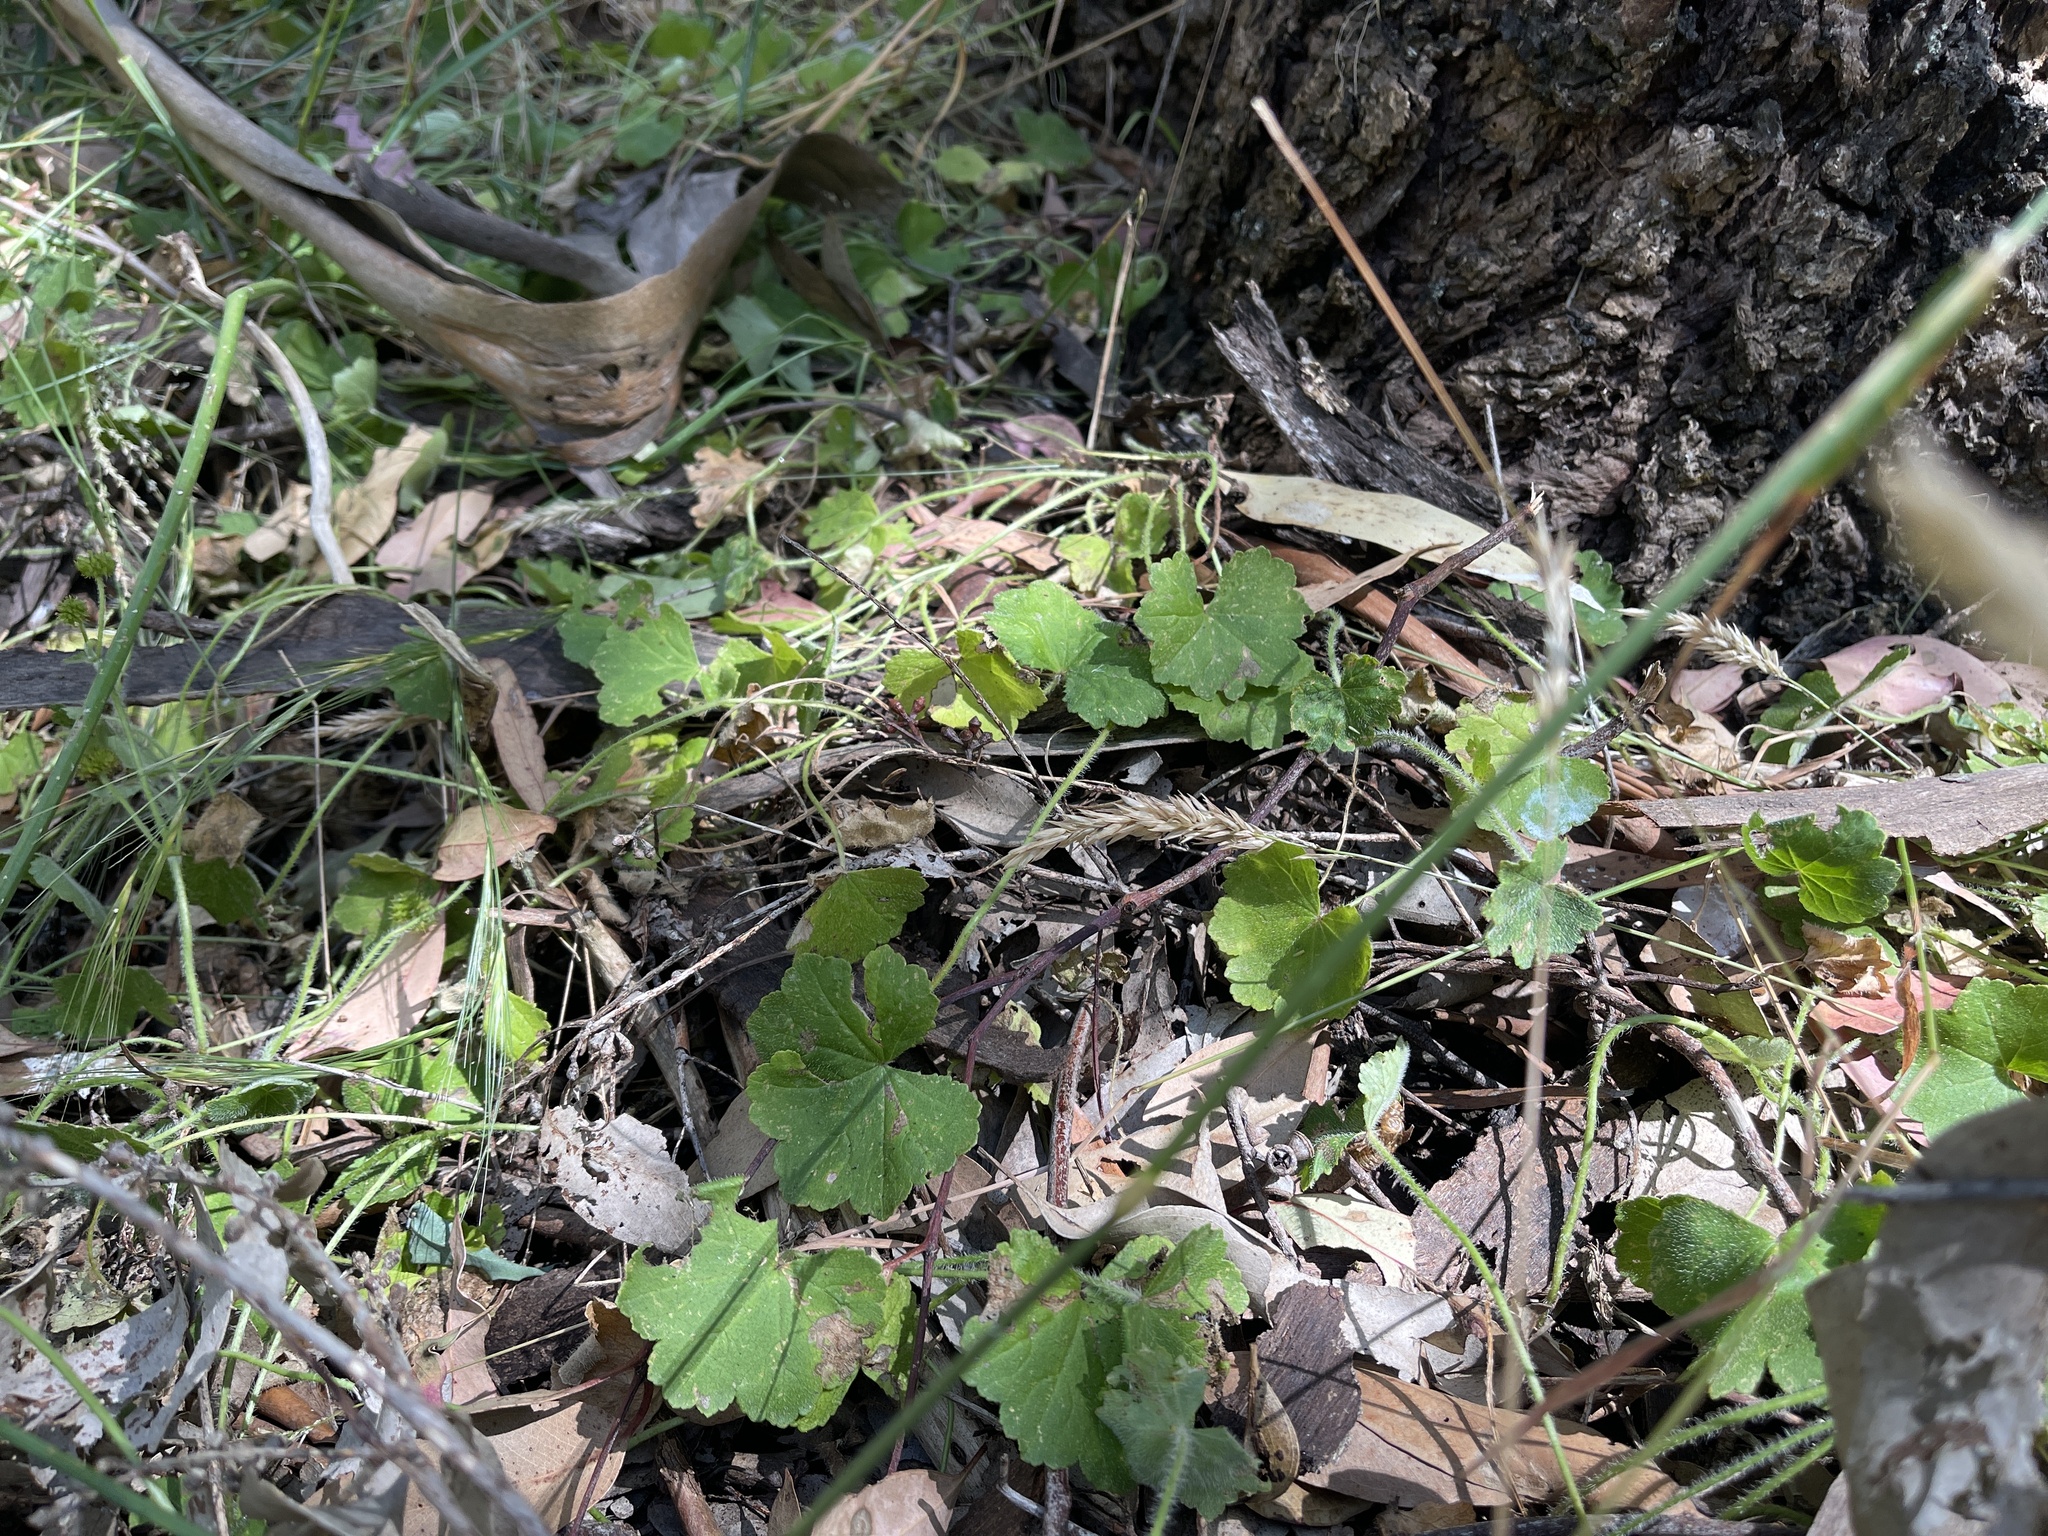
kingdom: Plantae
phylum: Tracheophyta
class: Magnoliopsida
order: Apiales
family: Araliaceae
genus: Hydrocotyle
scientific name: Hydrocotyle laxiflora
